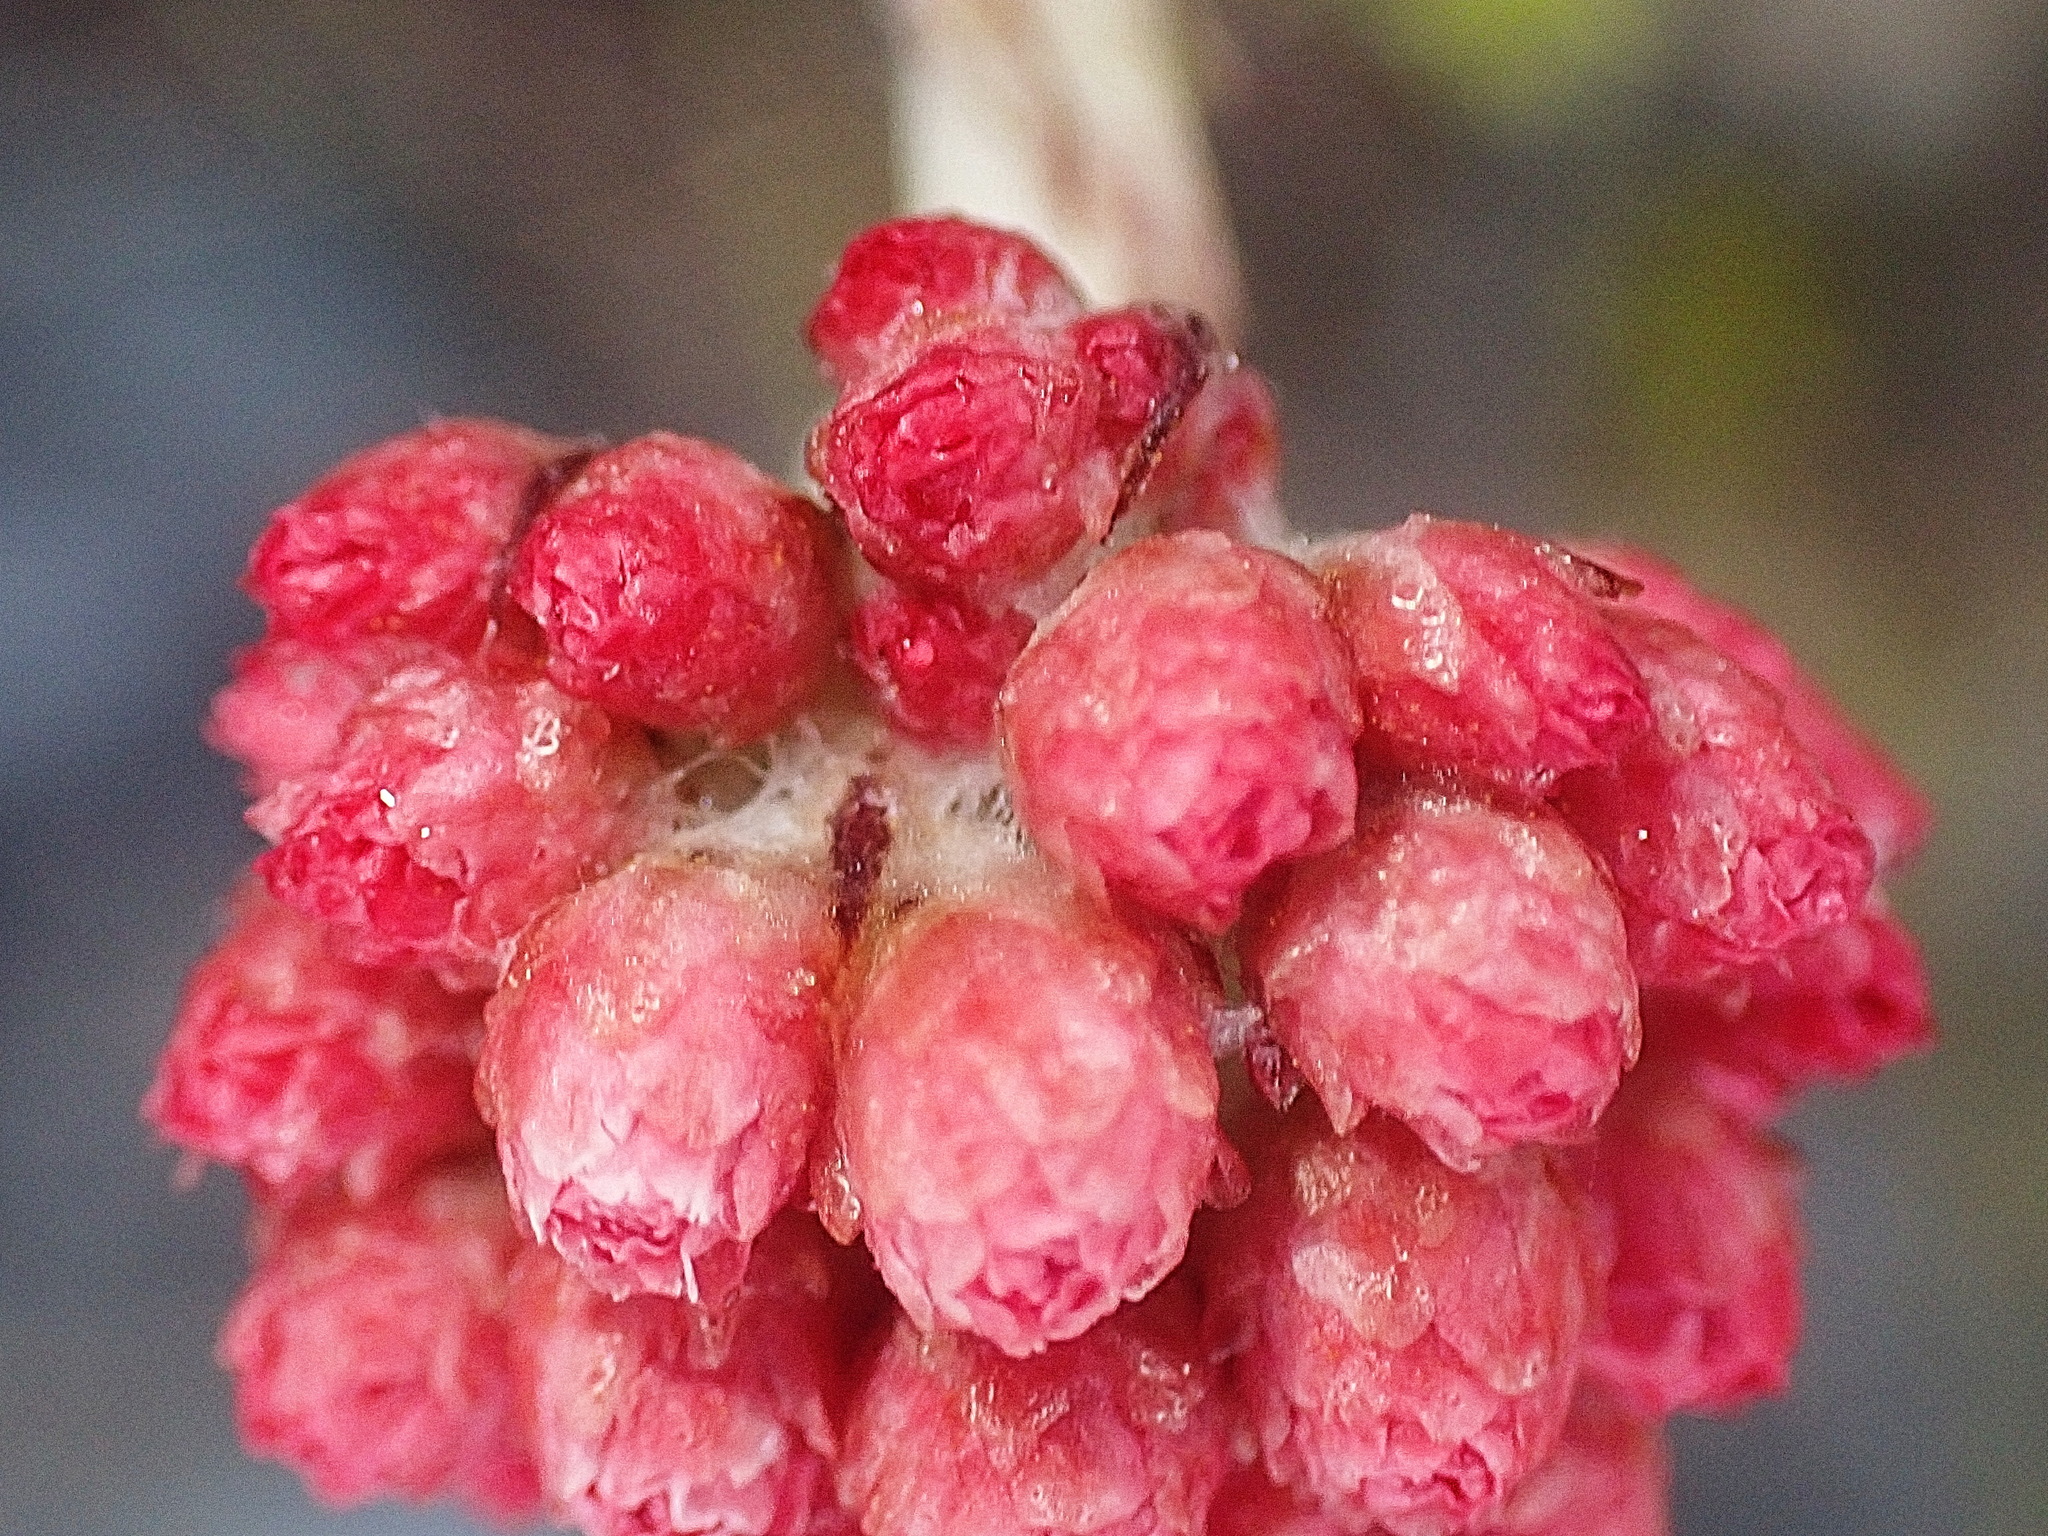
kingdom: Plantae
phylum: Tracheophyta
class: Magnoliopsida
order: Asterales
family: Asteraceae
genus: Helichrysum
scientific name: Helichrysum felinum
